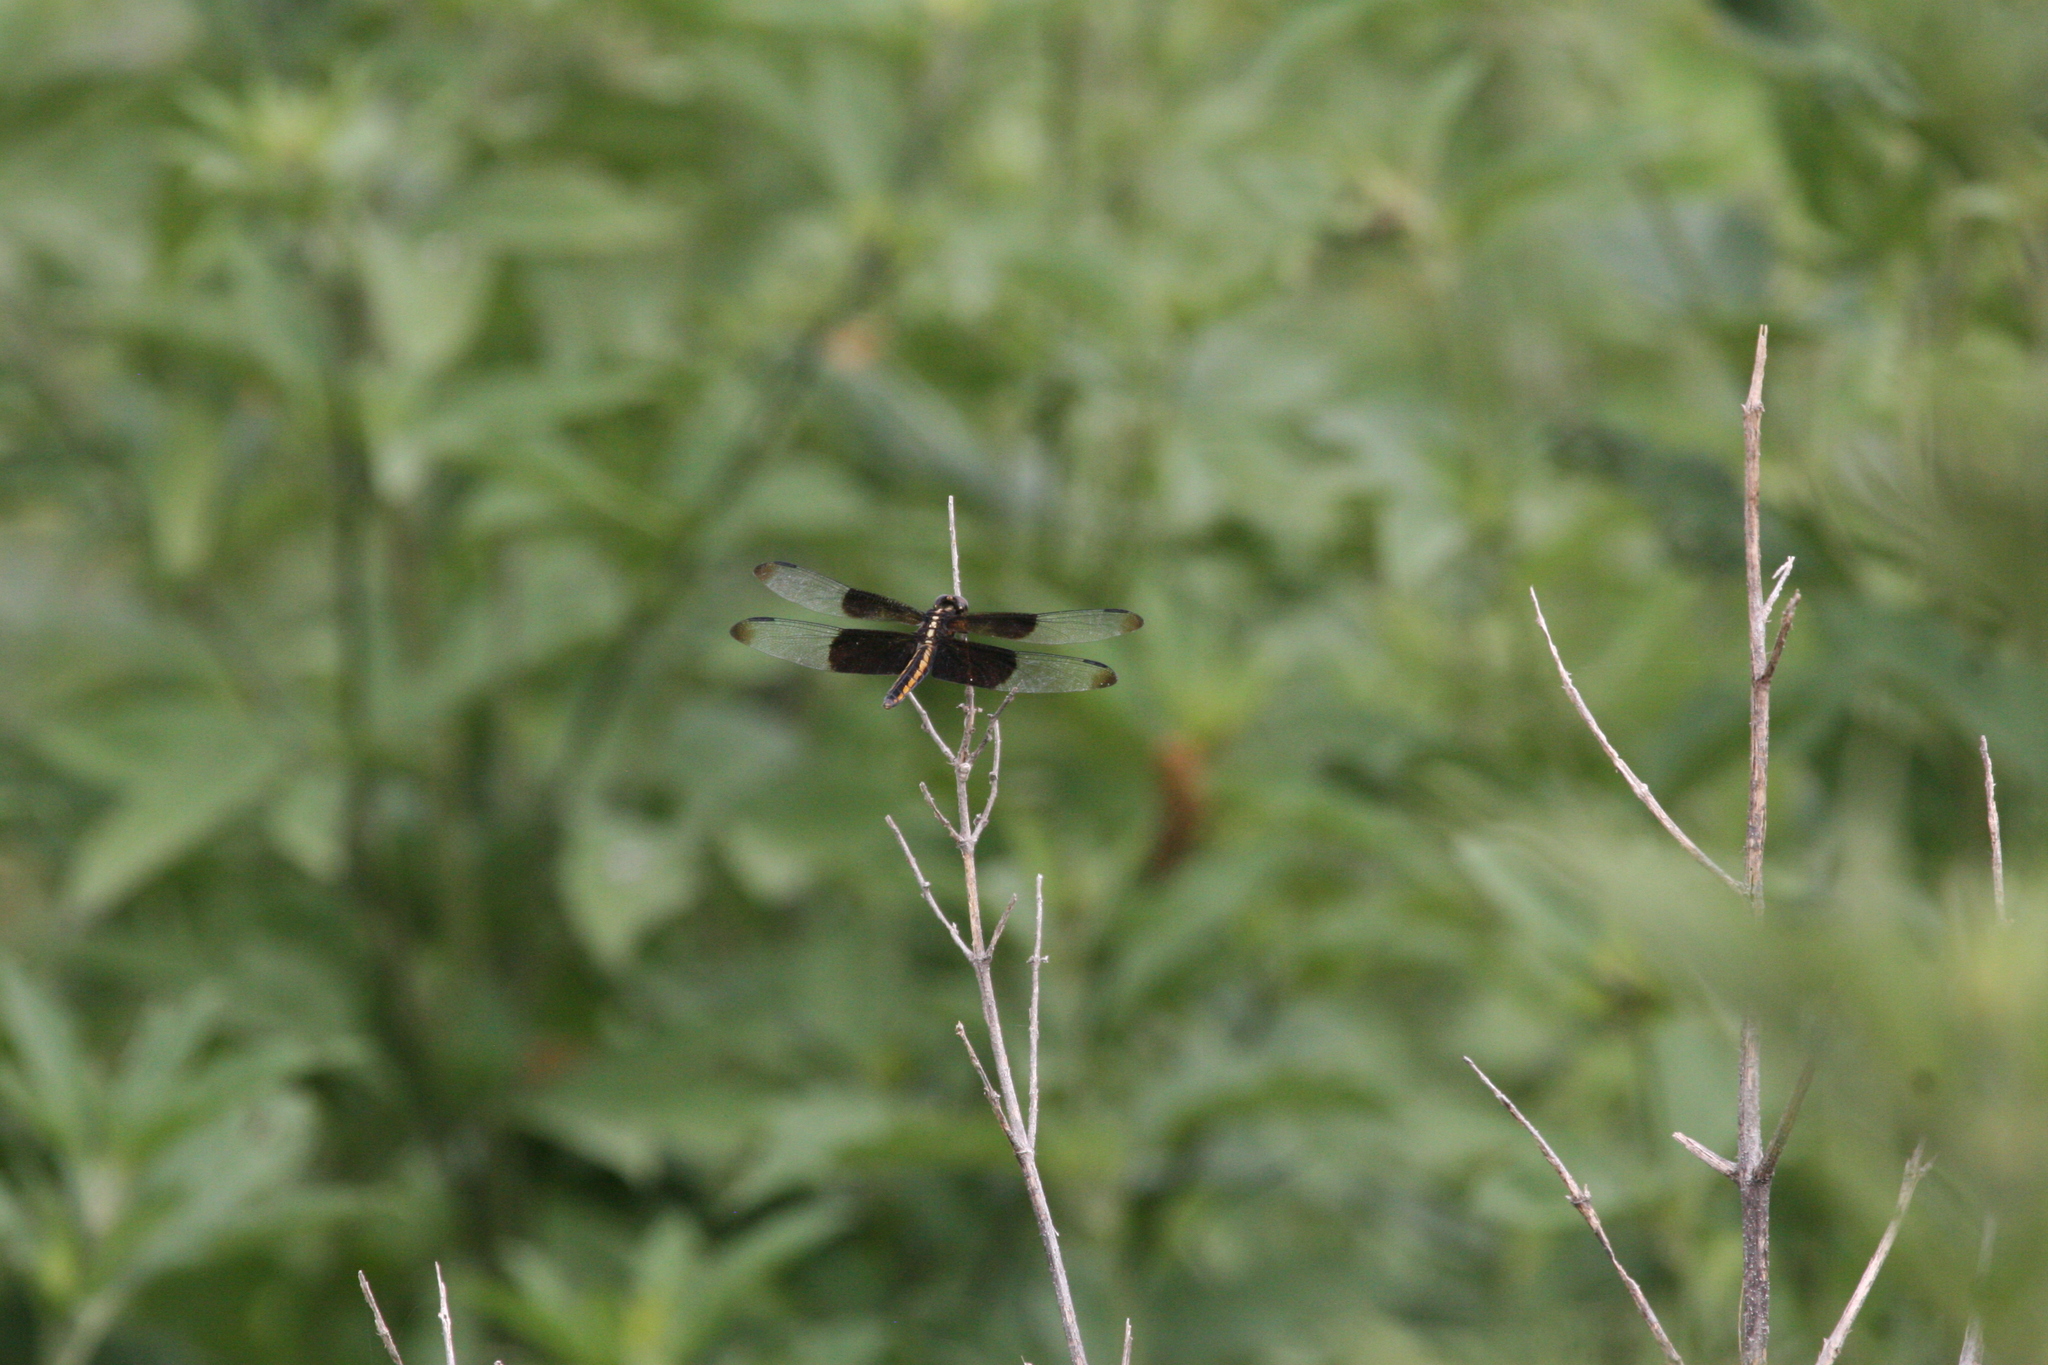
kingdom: Animalia
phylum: Arthropoda
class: Insecta
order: Odonata
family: Libellulidae
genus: Libellula
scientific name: Libellula luctuosa
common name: Widow skimmer
